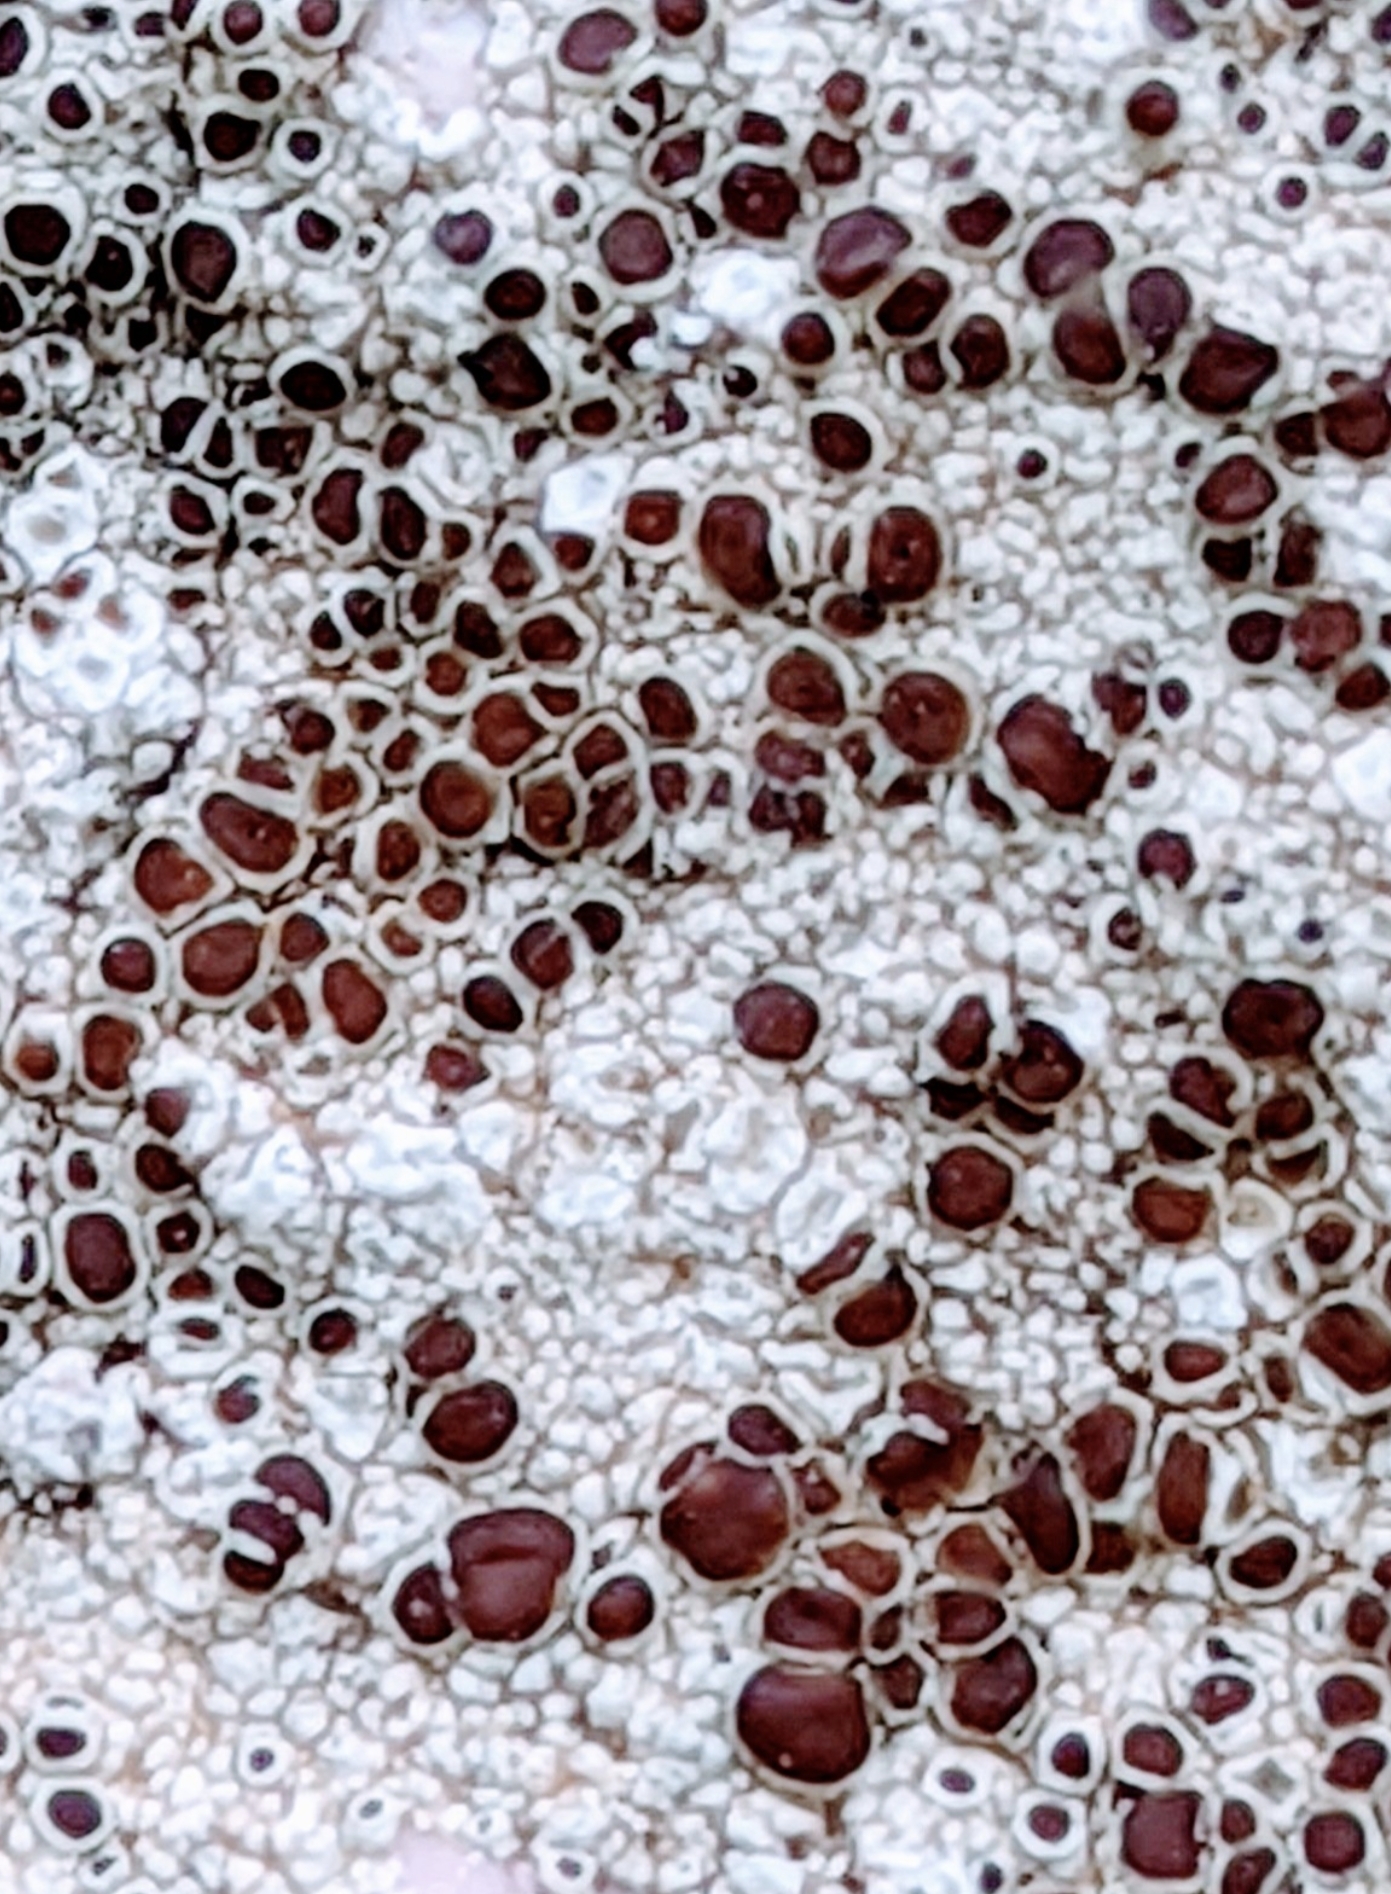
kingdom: Fungi
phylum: Ascomycota
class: Lecanoromycetes
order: Lecanorales
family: Lecanoraceae
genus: Lecanora
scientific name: Lecanora campestris
